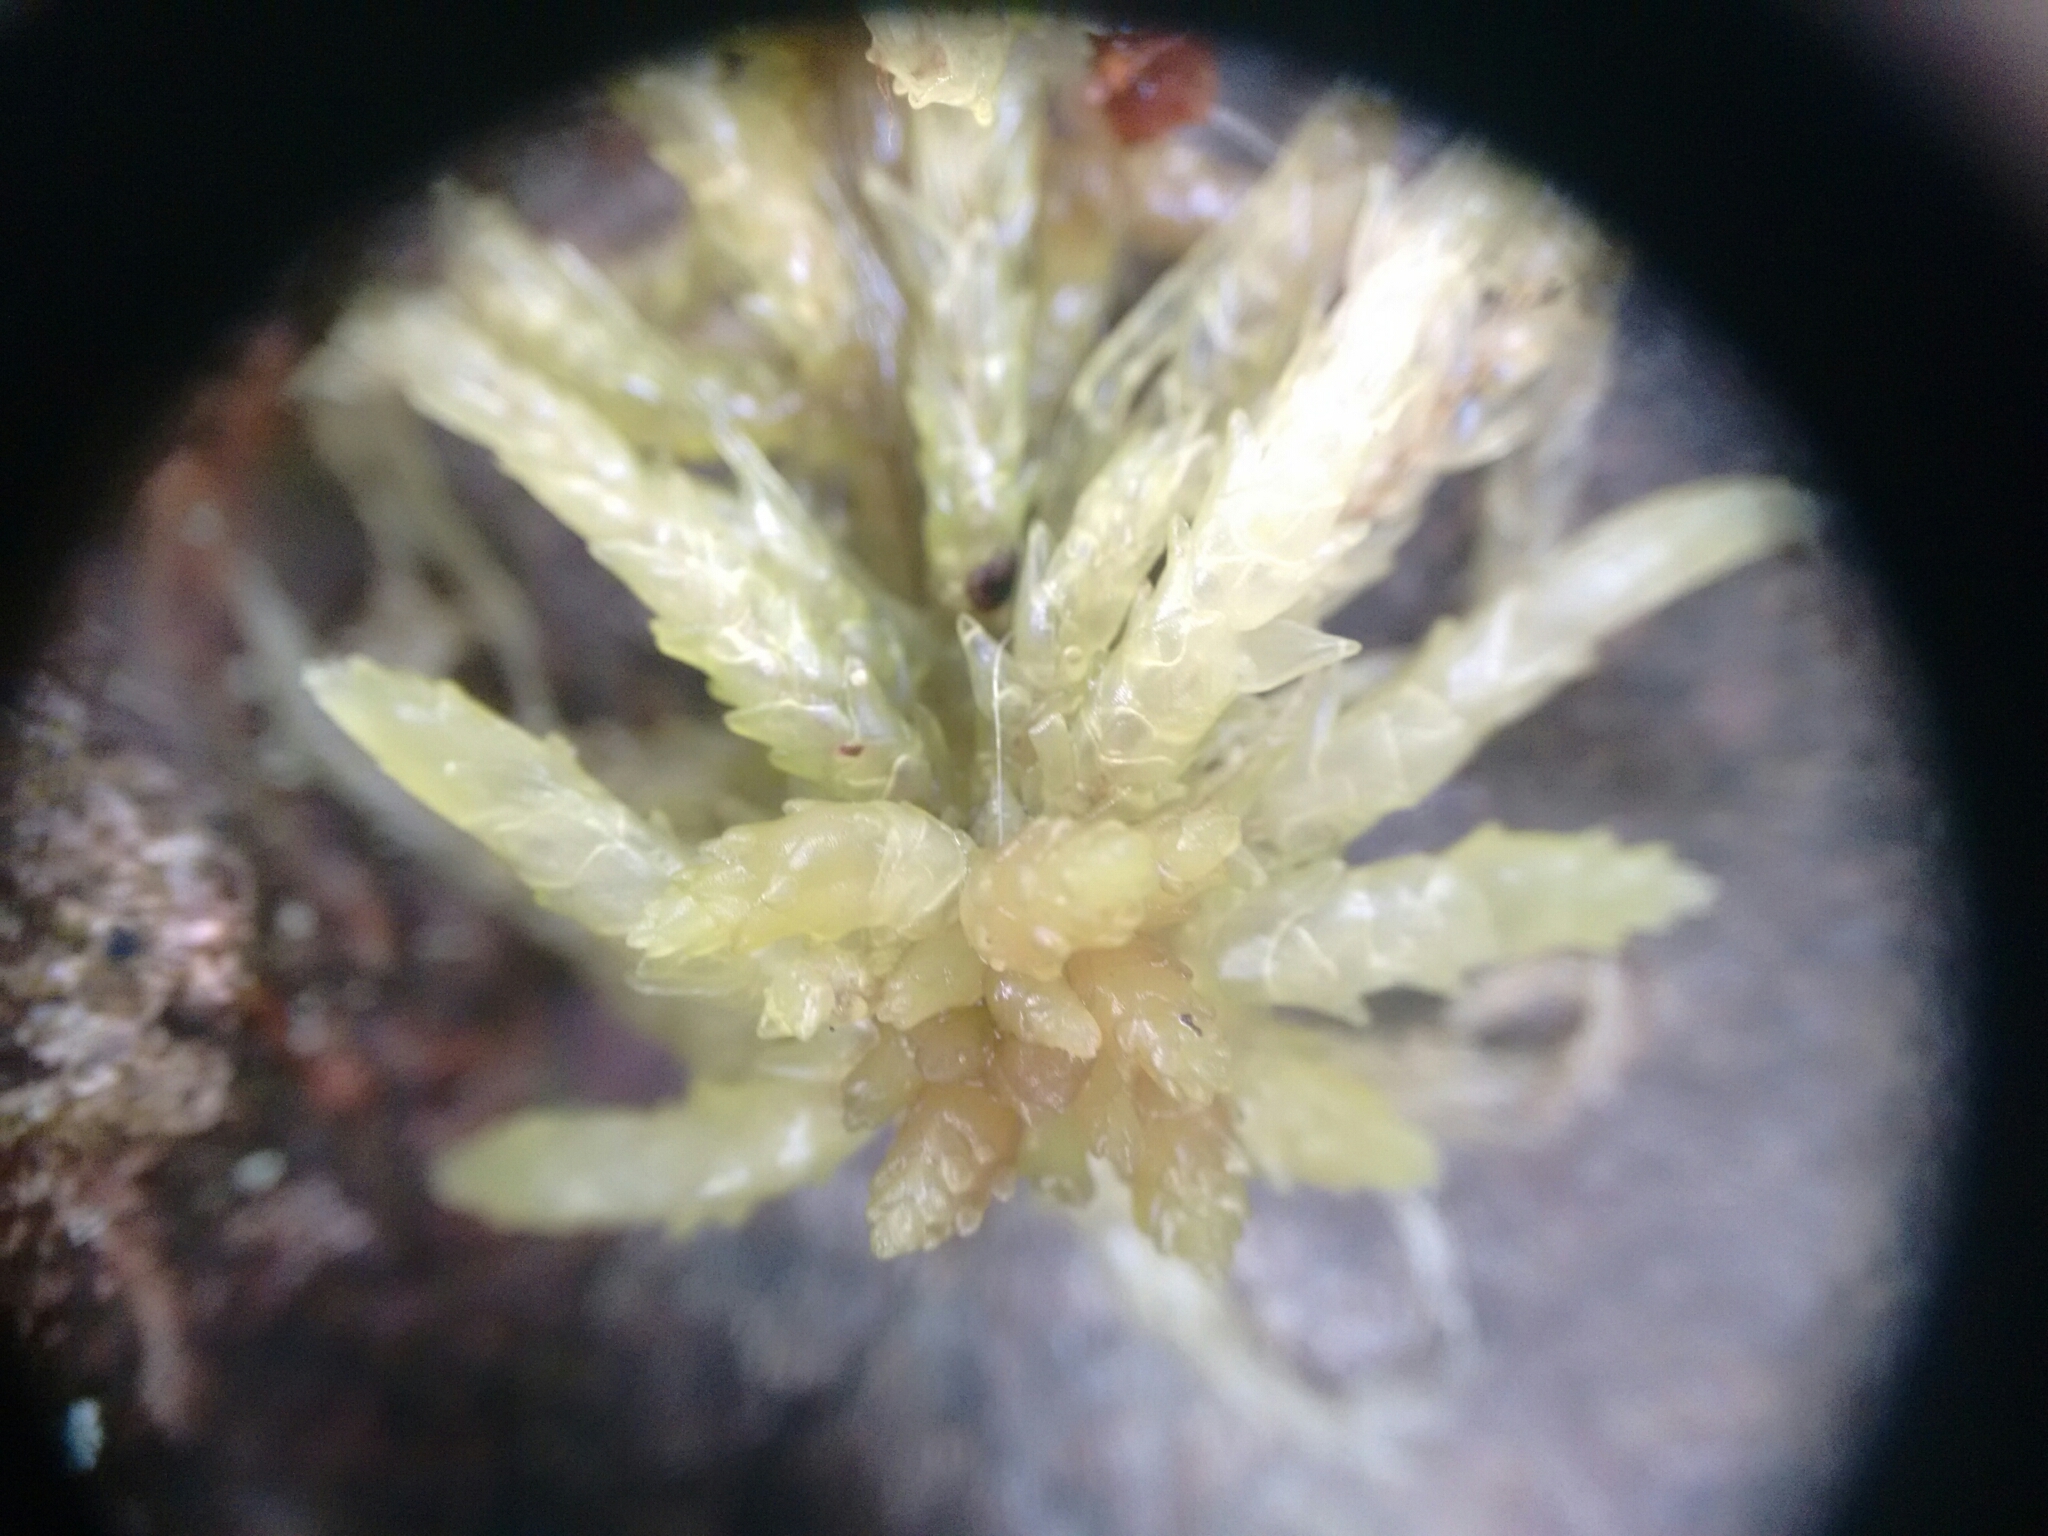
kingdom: Plantae
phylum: Bryophyta
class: Sphagnopsida
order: Sphagnales
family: Sphagnaceae
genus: Sphagnum
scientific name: Sphagnum palustre
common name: Blunt-leaved bog-moss
